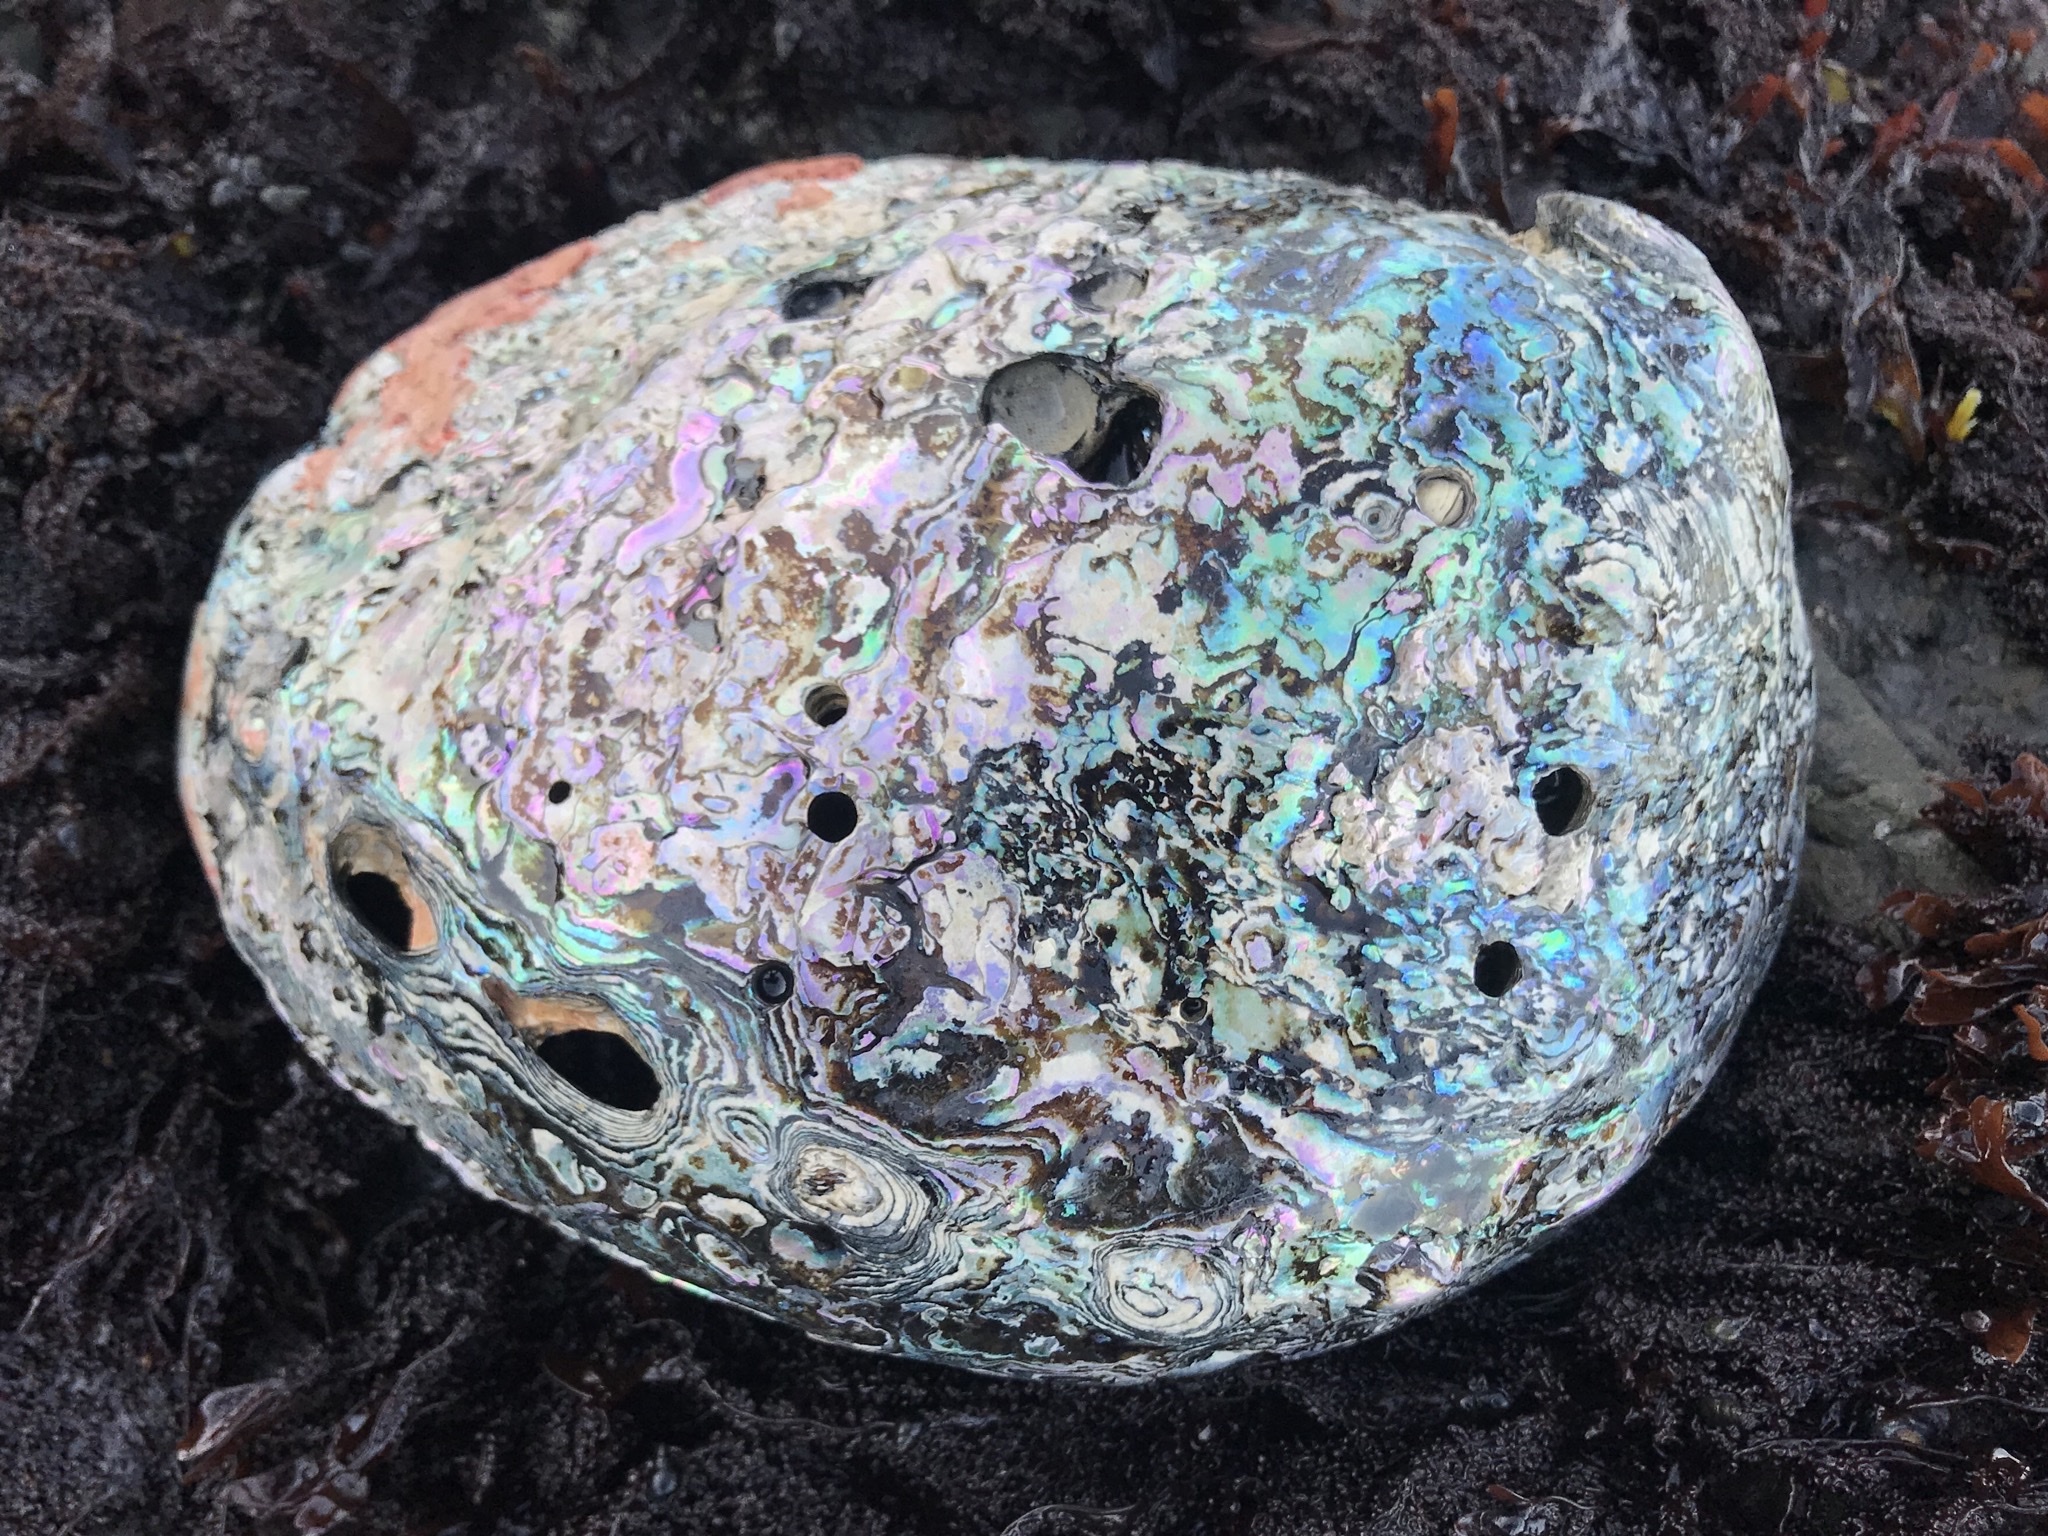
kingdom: Animalia
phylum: Mollusca
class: Gastropoda
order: Lepetellida
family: Haliotidae
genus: Haliotis
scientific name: Haliotis rufescens
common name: Red abalone
